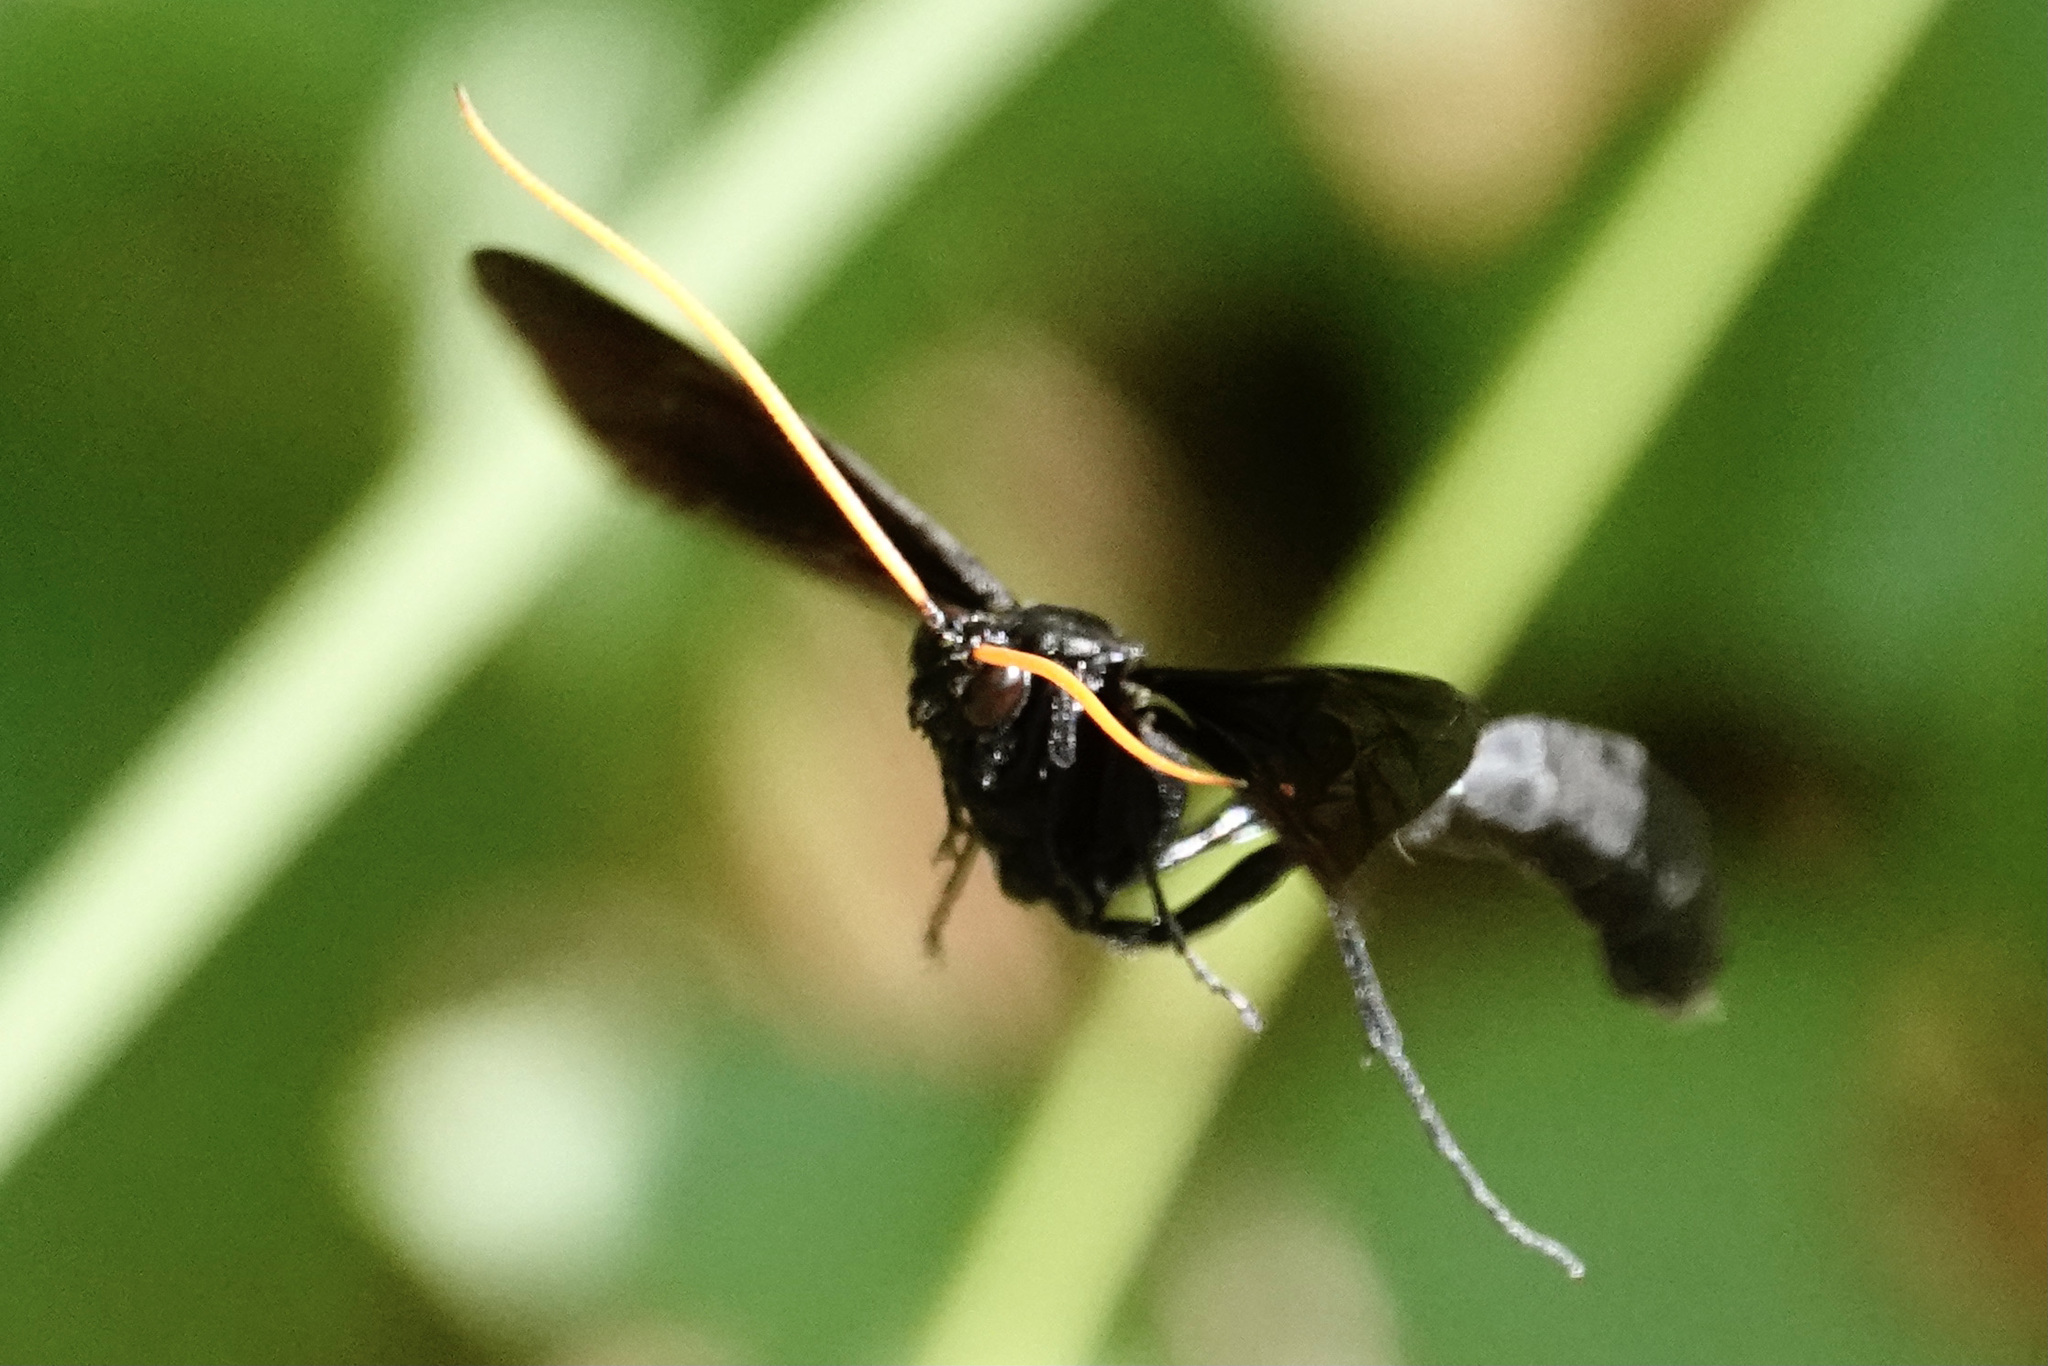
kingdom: Animalia
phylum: Arthropoda
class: Insecta
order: Hymenoptera
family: Ichneumonidae
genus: Thyreodon
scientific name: Thyreodon atricolor
